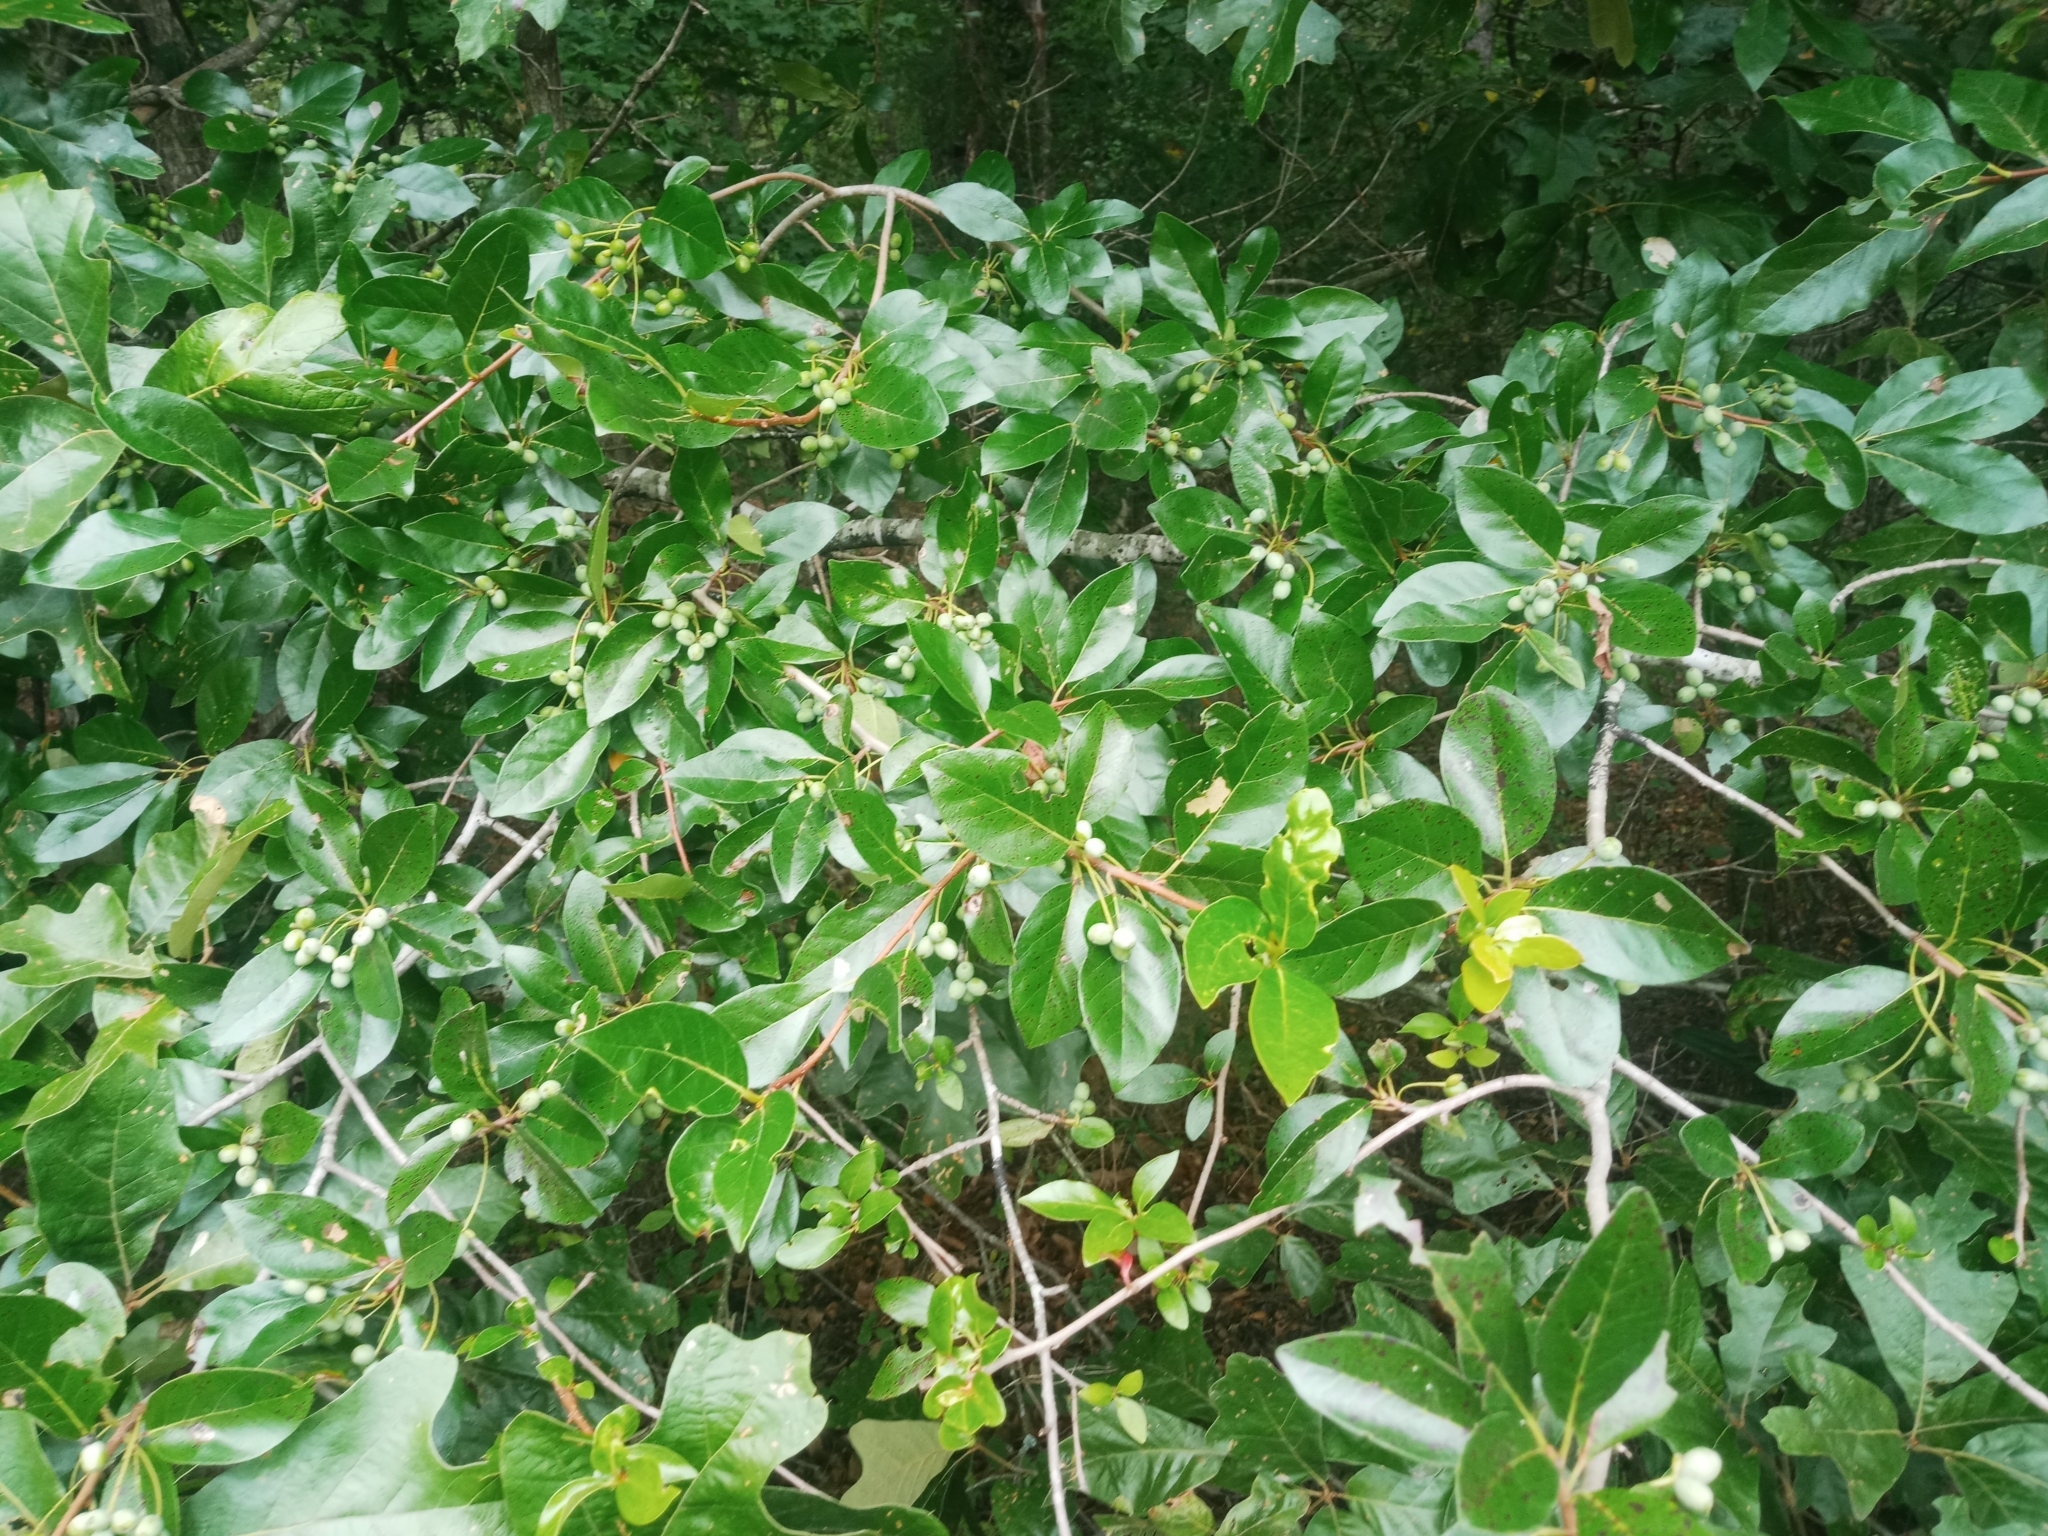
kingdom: Plantae
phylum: Tracheophyta
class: Magnoliopsida
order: Cornales
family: Nyssaceae
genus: Nyssa
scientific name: Nyssa sylvatica
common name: Black tupelo
